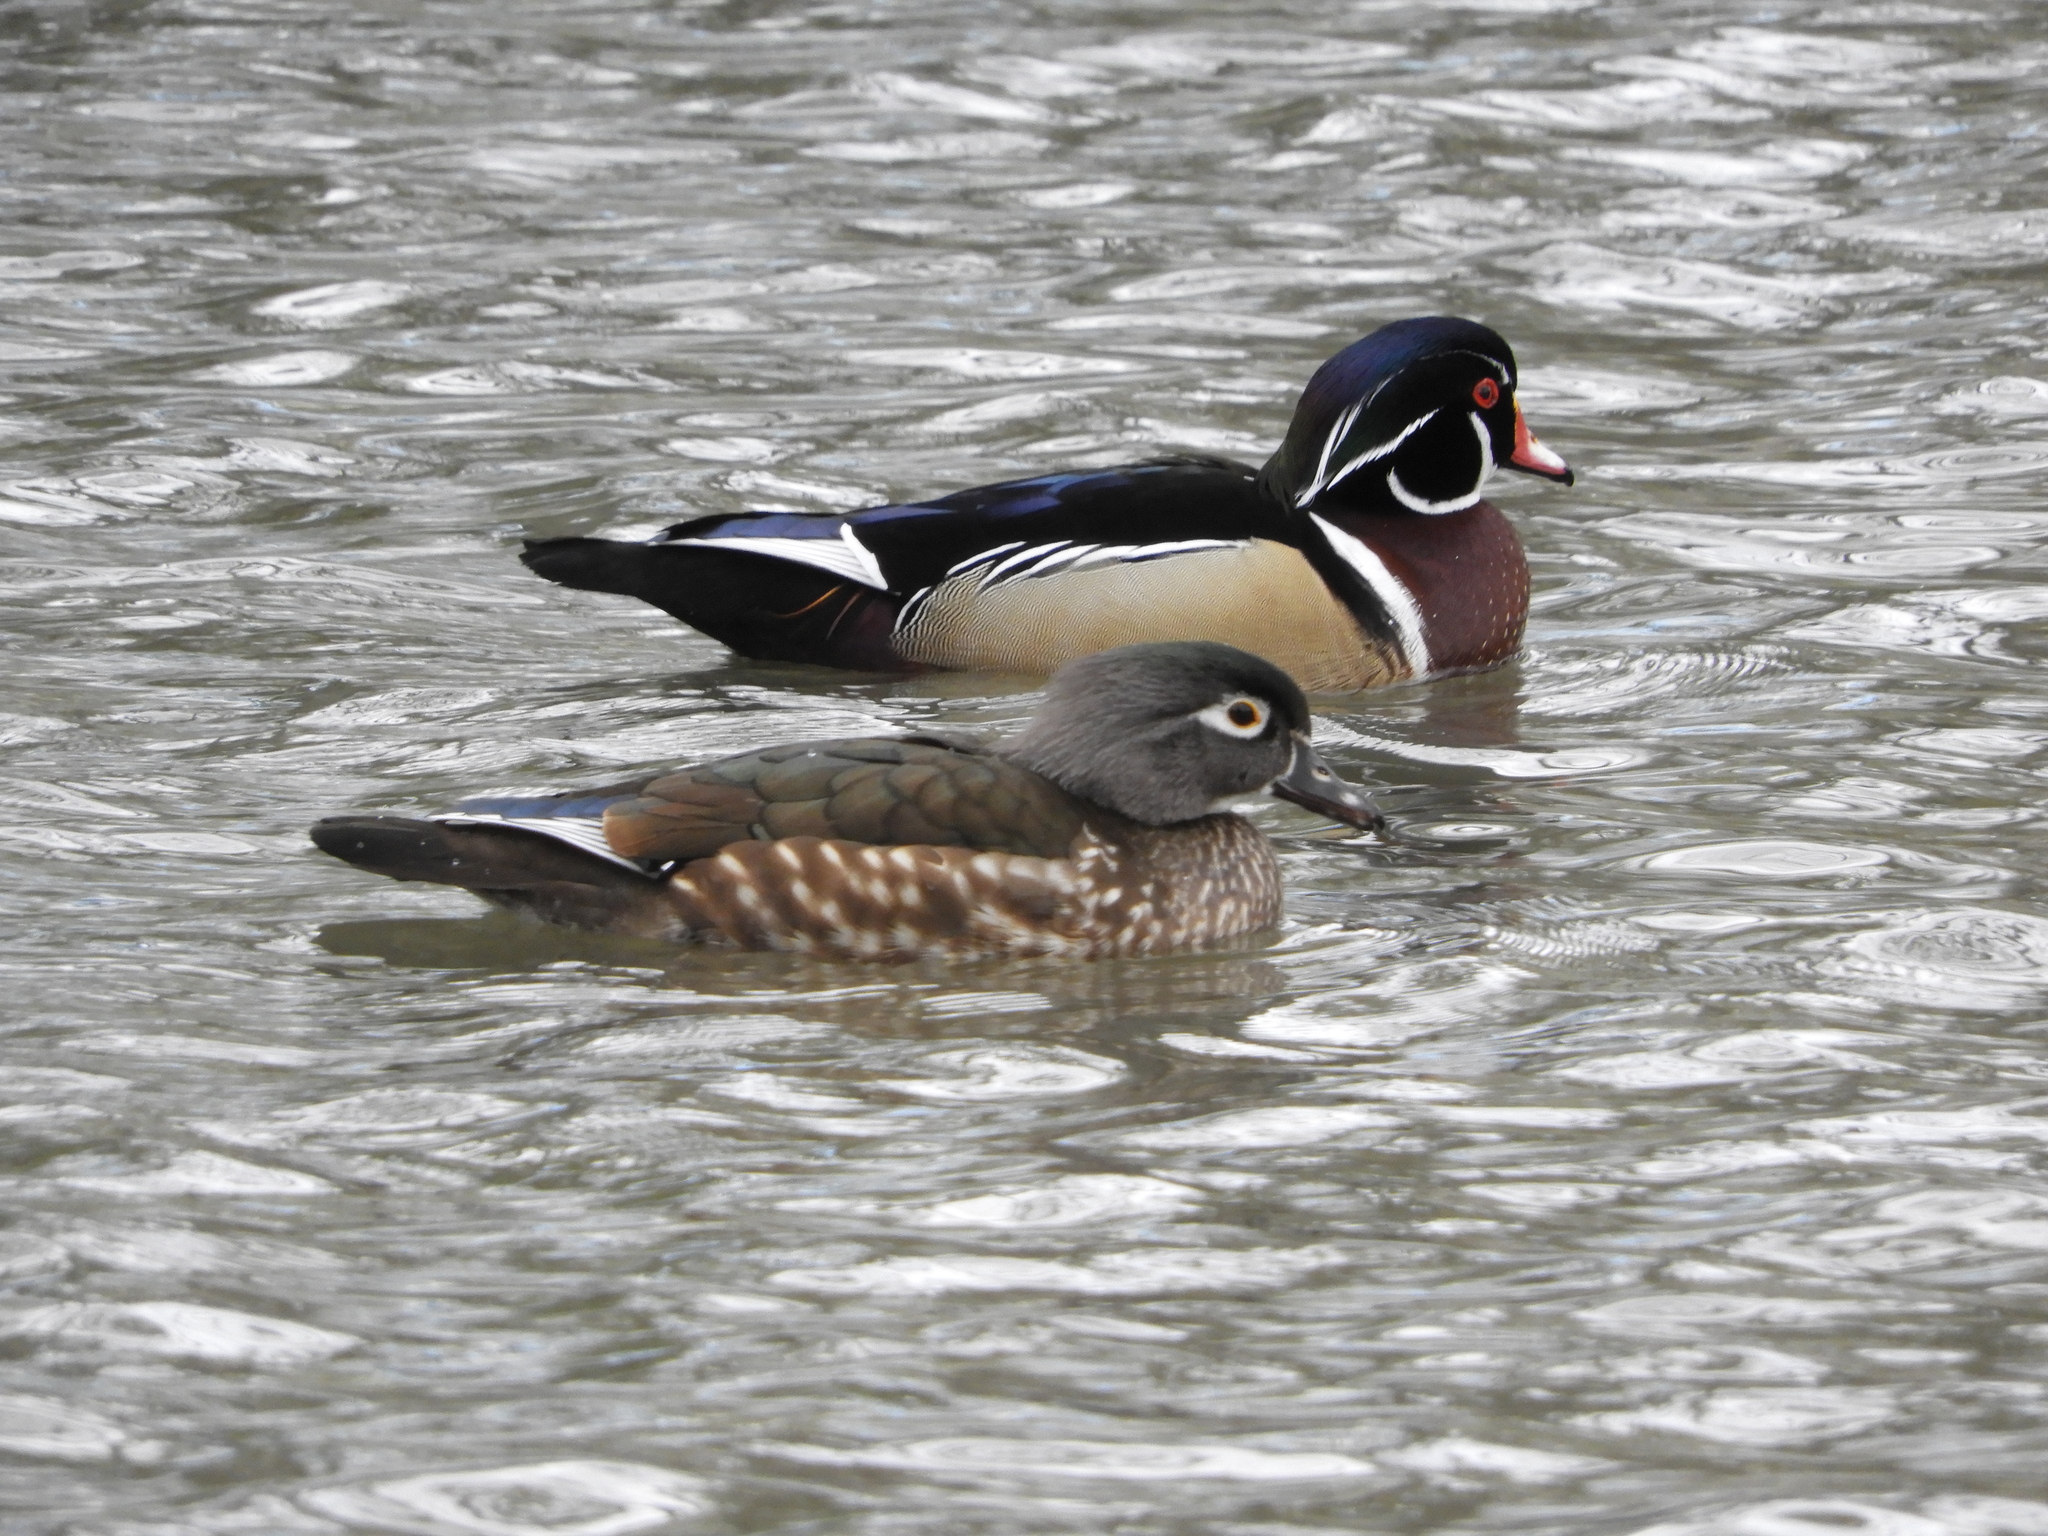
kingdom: Animalia
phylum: Chordata
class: Aves
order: Anseriformes
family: Anatidae
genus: Aix
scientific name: Aix sponsa
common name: Wood duck
